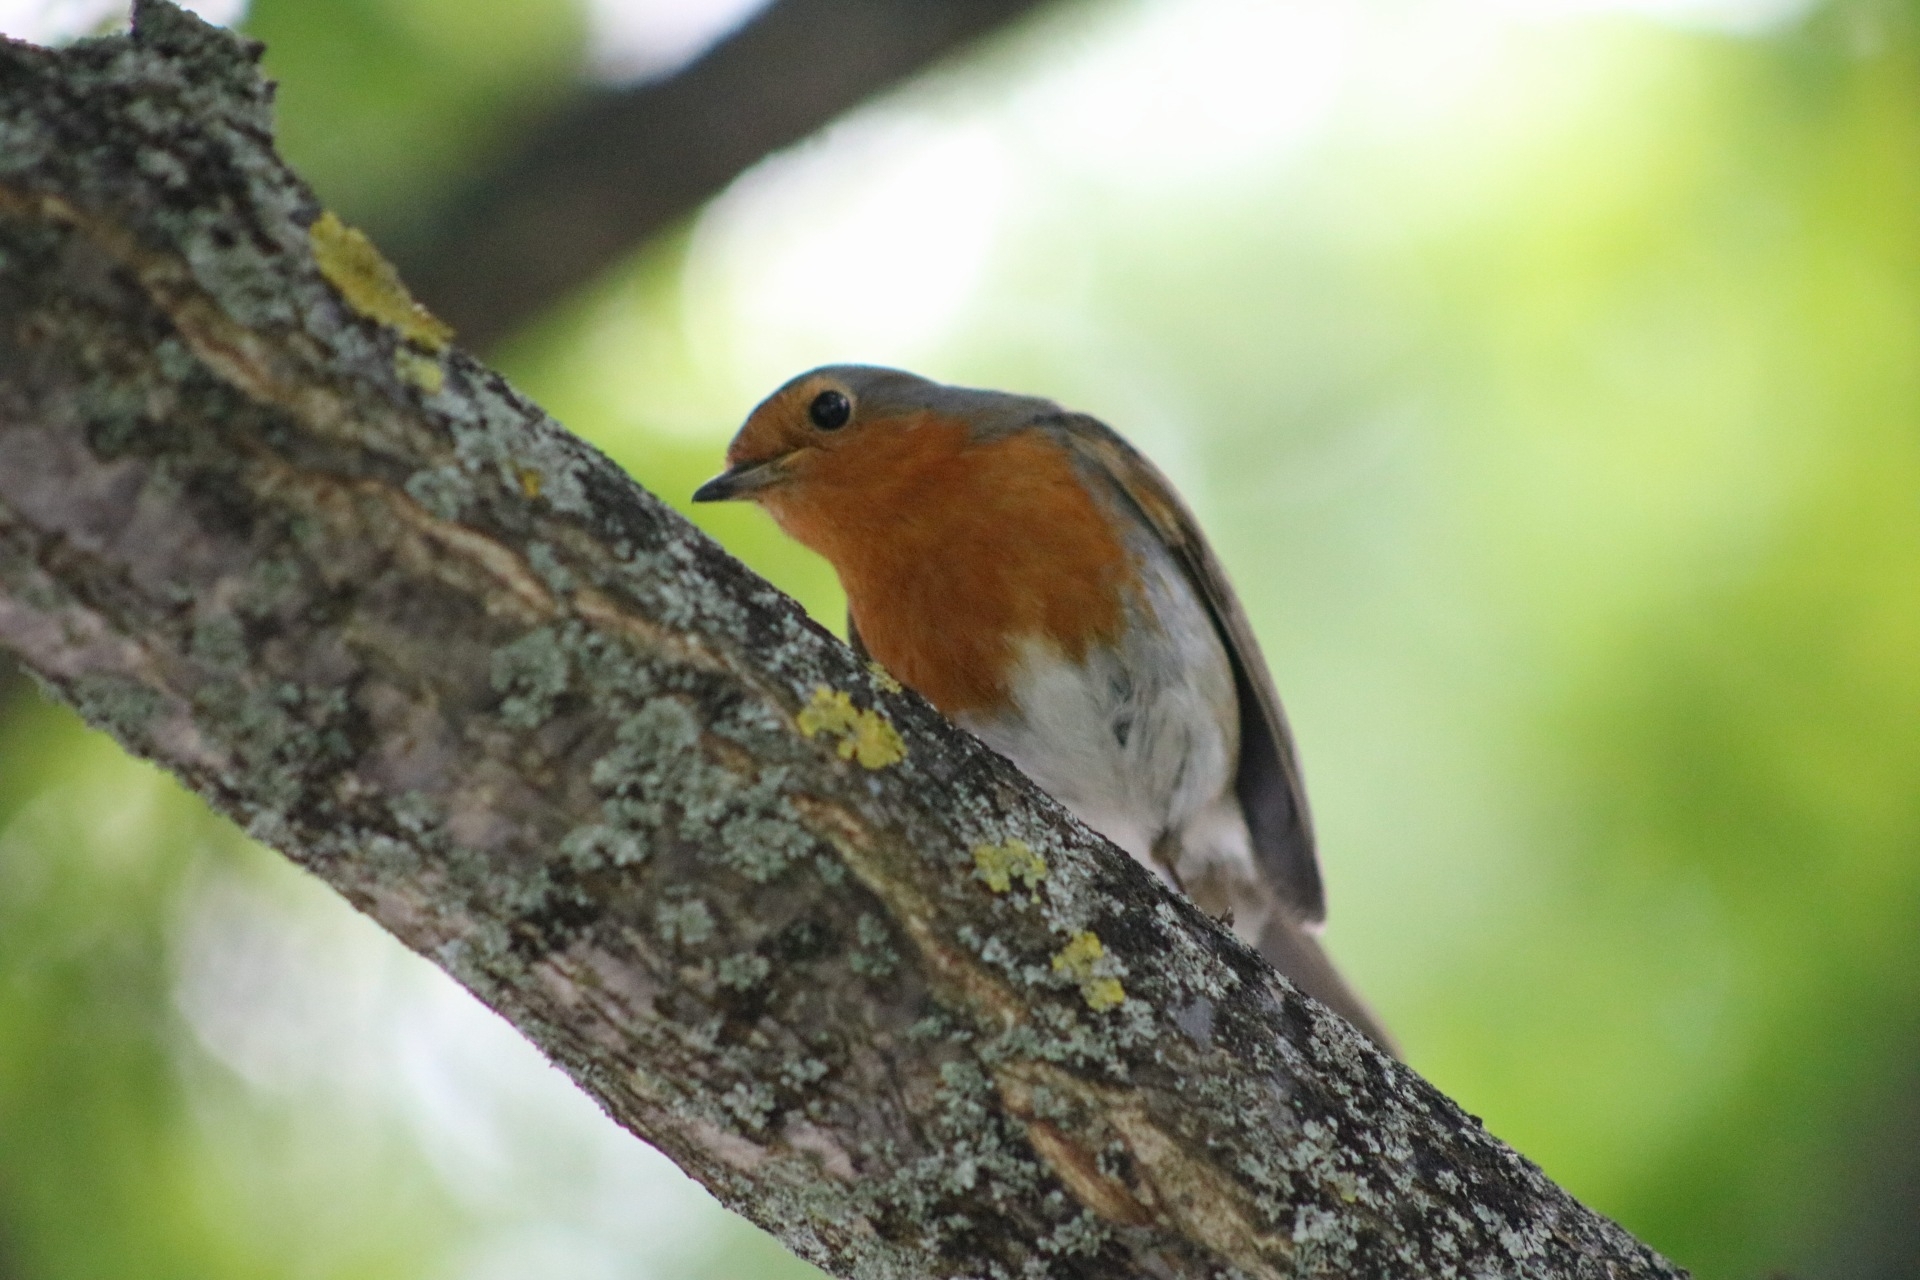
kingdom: Animalia
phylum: Chordata
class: Aves
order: Passeriformes
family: Muscicapidae
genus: Erithacus
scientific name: Erithacus rubecula
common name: European robin
